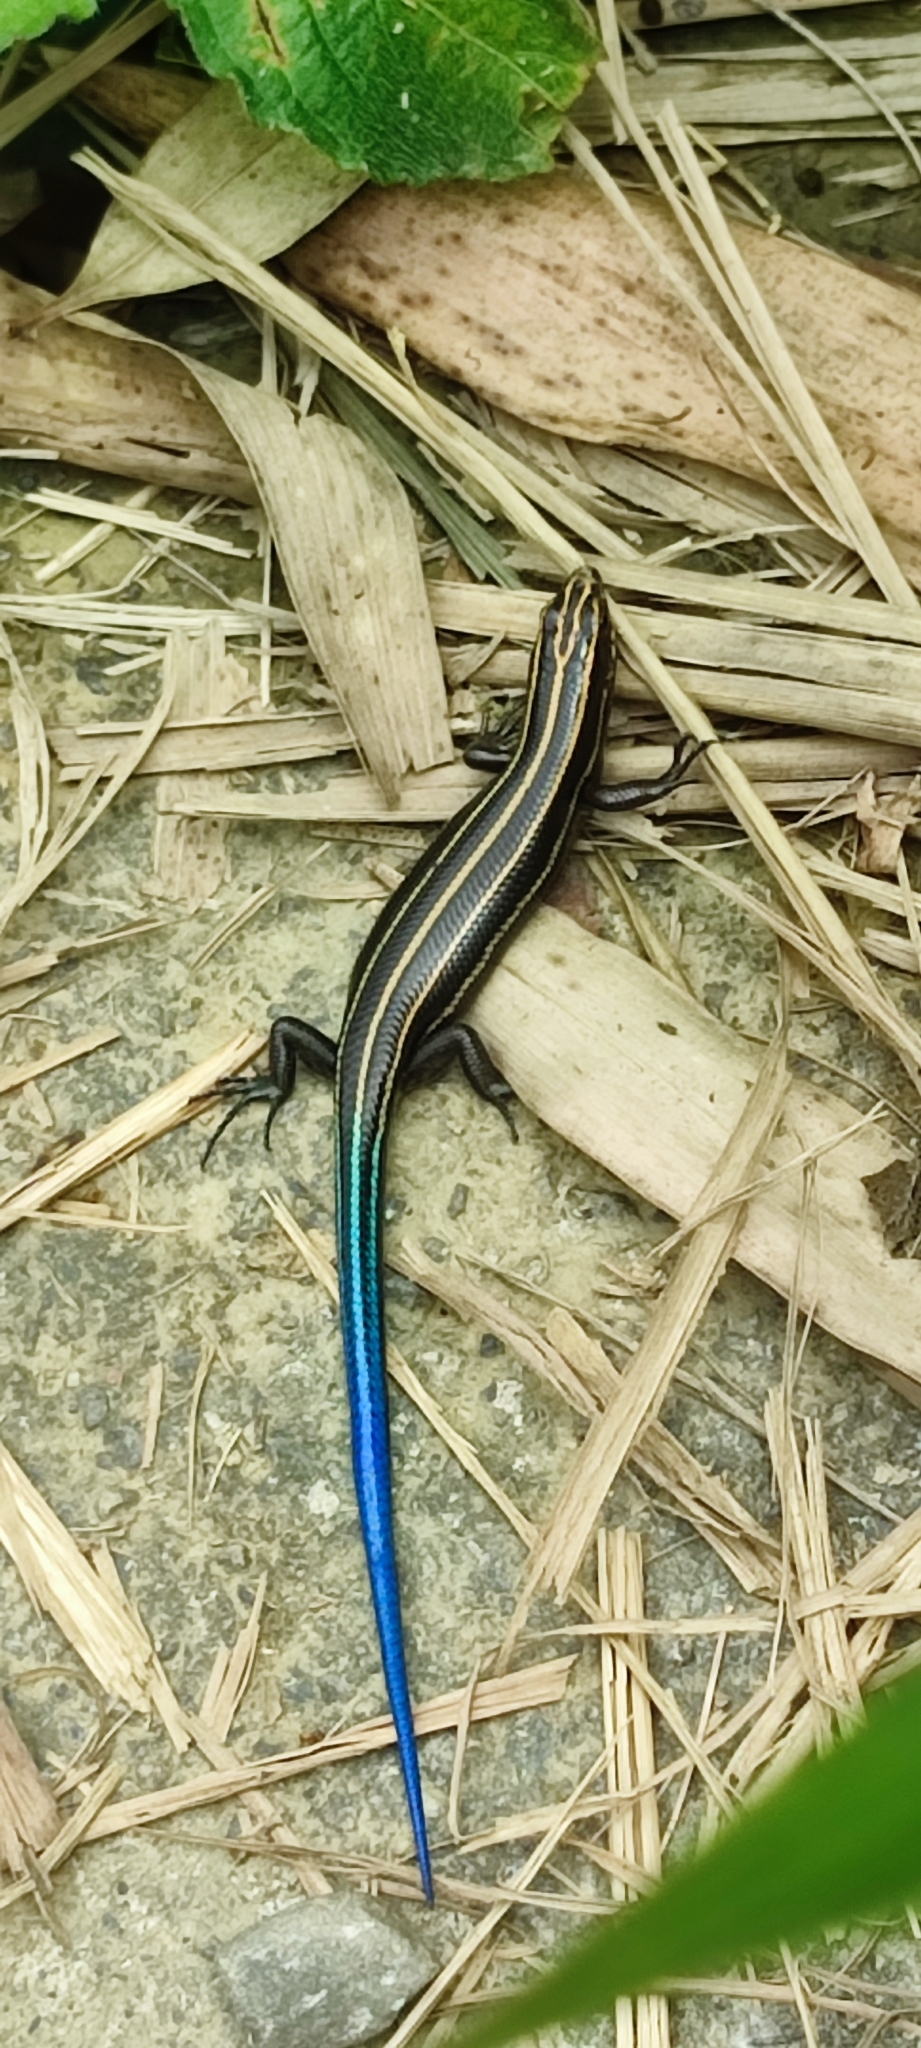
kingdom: Animalia
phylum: Chordata
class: Squamata
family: Scincidae
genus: Plestiodon
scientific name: Plestiodon elegans
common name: Shanghai elegant skink
